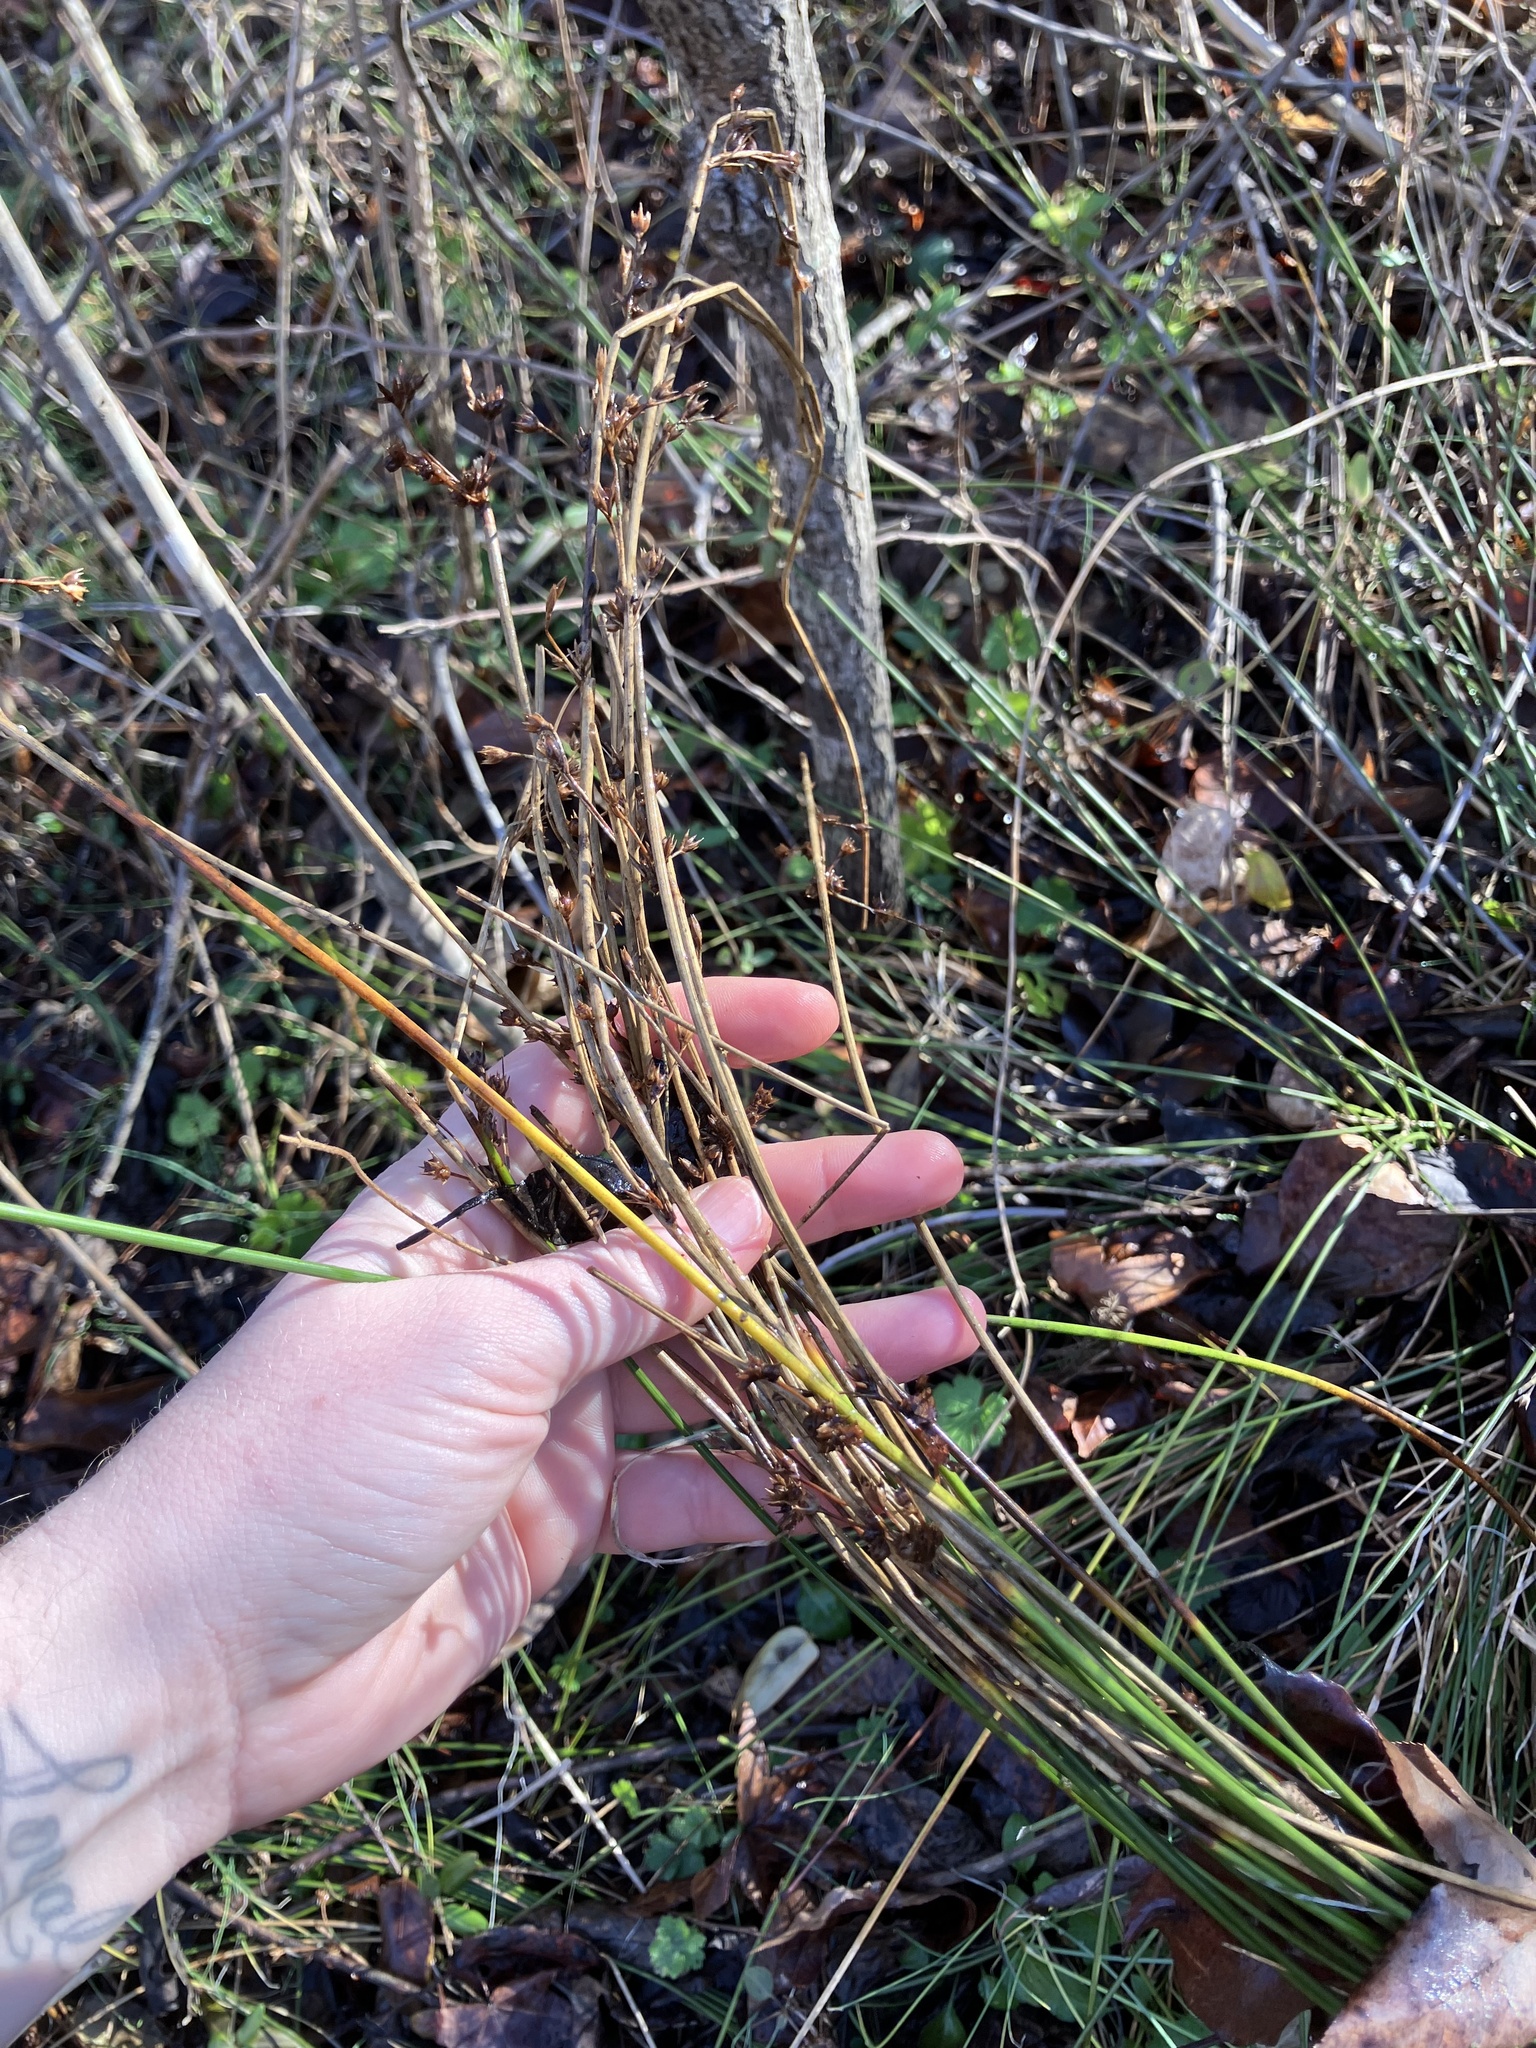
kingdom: Plantae
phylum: Tracheophyta
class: Liliopsida
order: Poales
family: Juncaceae
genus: Juncus
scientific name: Juncus coriaceus
